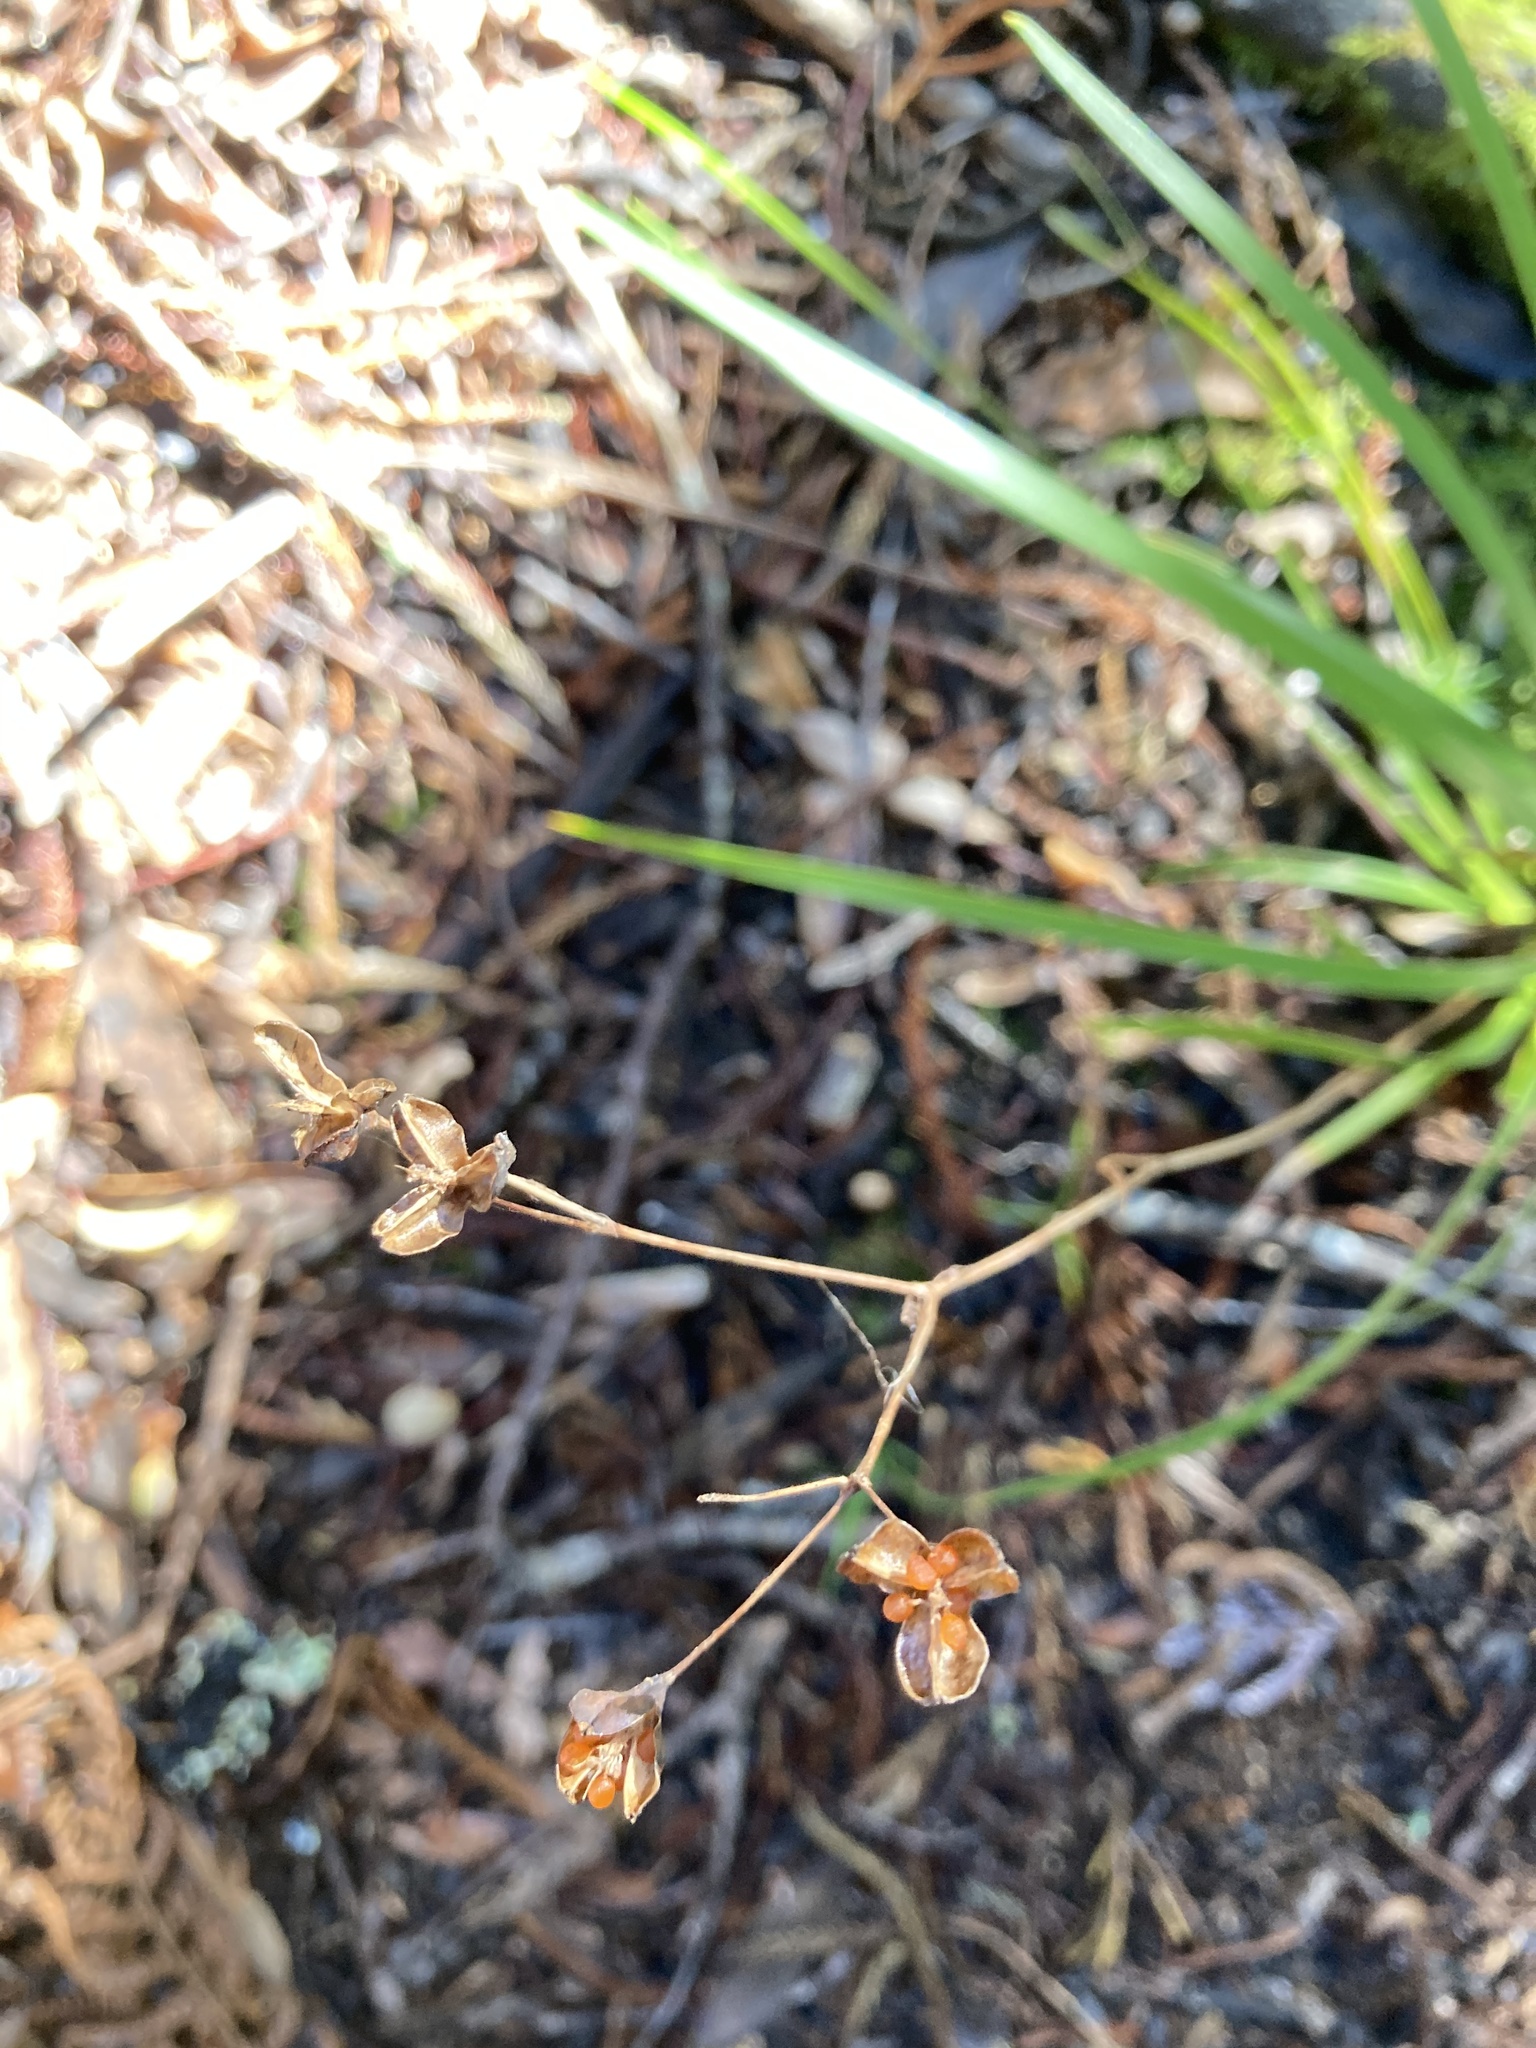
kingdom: Plantae
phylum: Tracheophyta
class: Liliopsida
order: Asparagales
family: Iridaceae
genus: Libertia
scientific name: Libertia grandiflora
